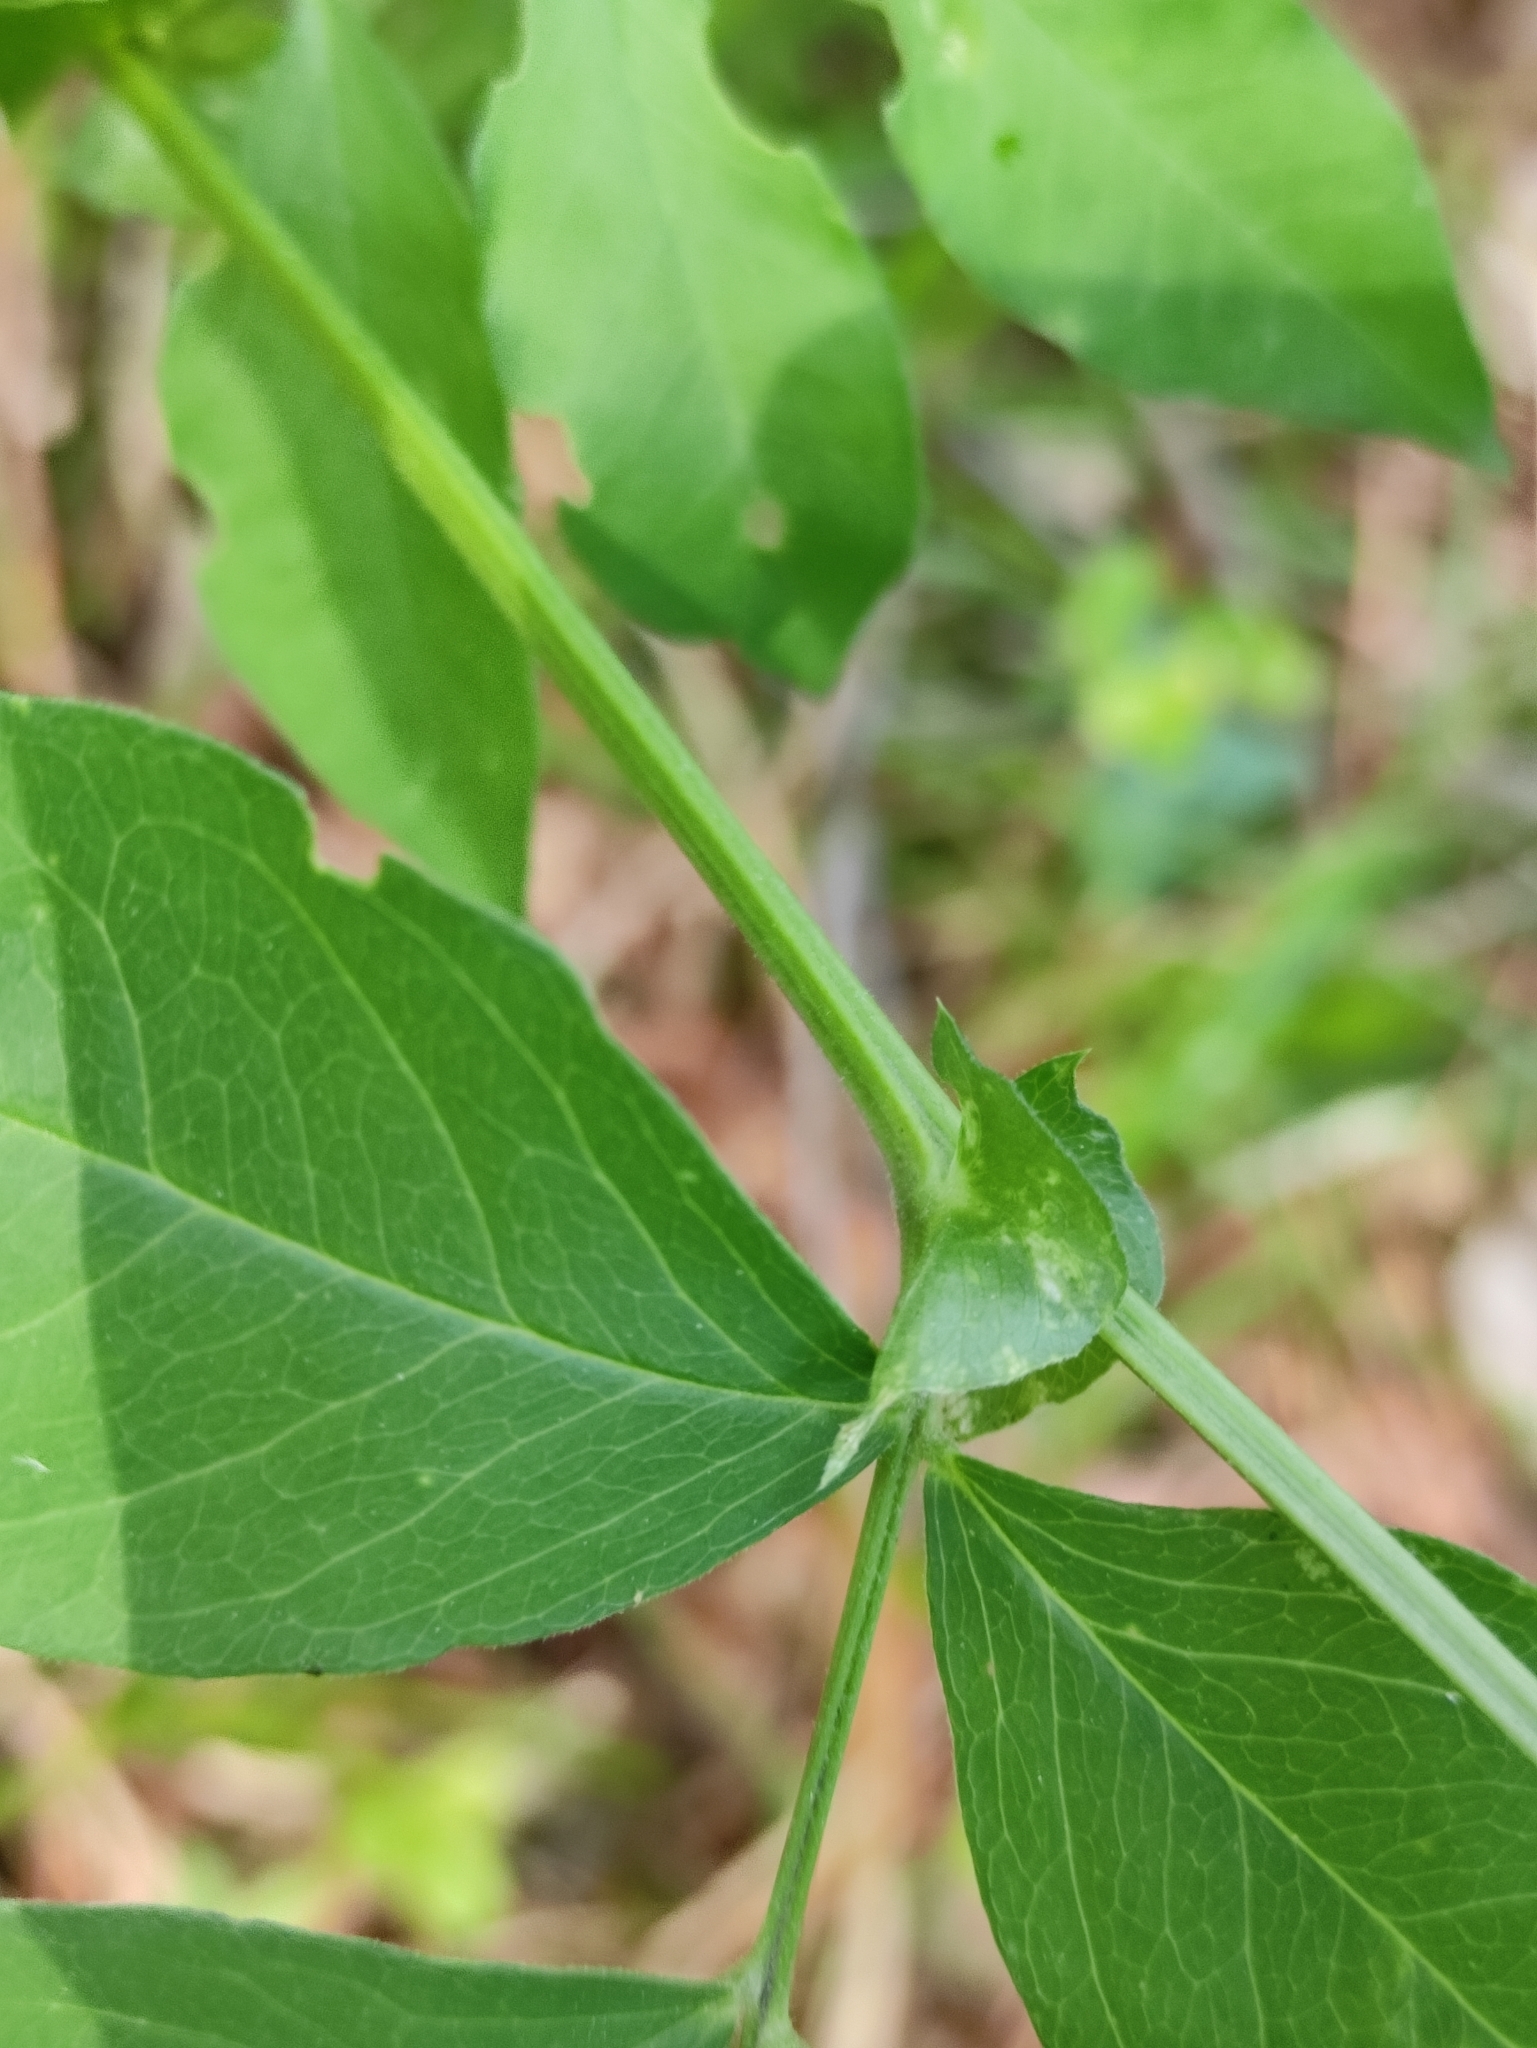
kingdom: Plantae
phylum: Tracheophyta
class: Magnoliopsida
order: Fabales
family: Fabaceae
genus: Vicia
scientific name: Vicia ramuliflora
